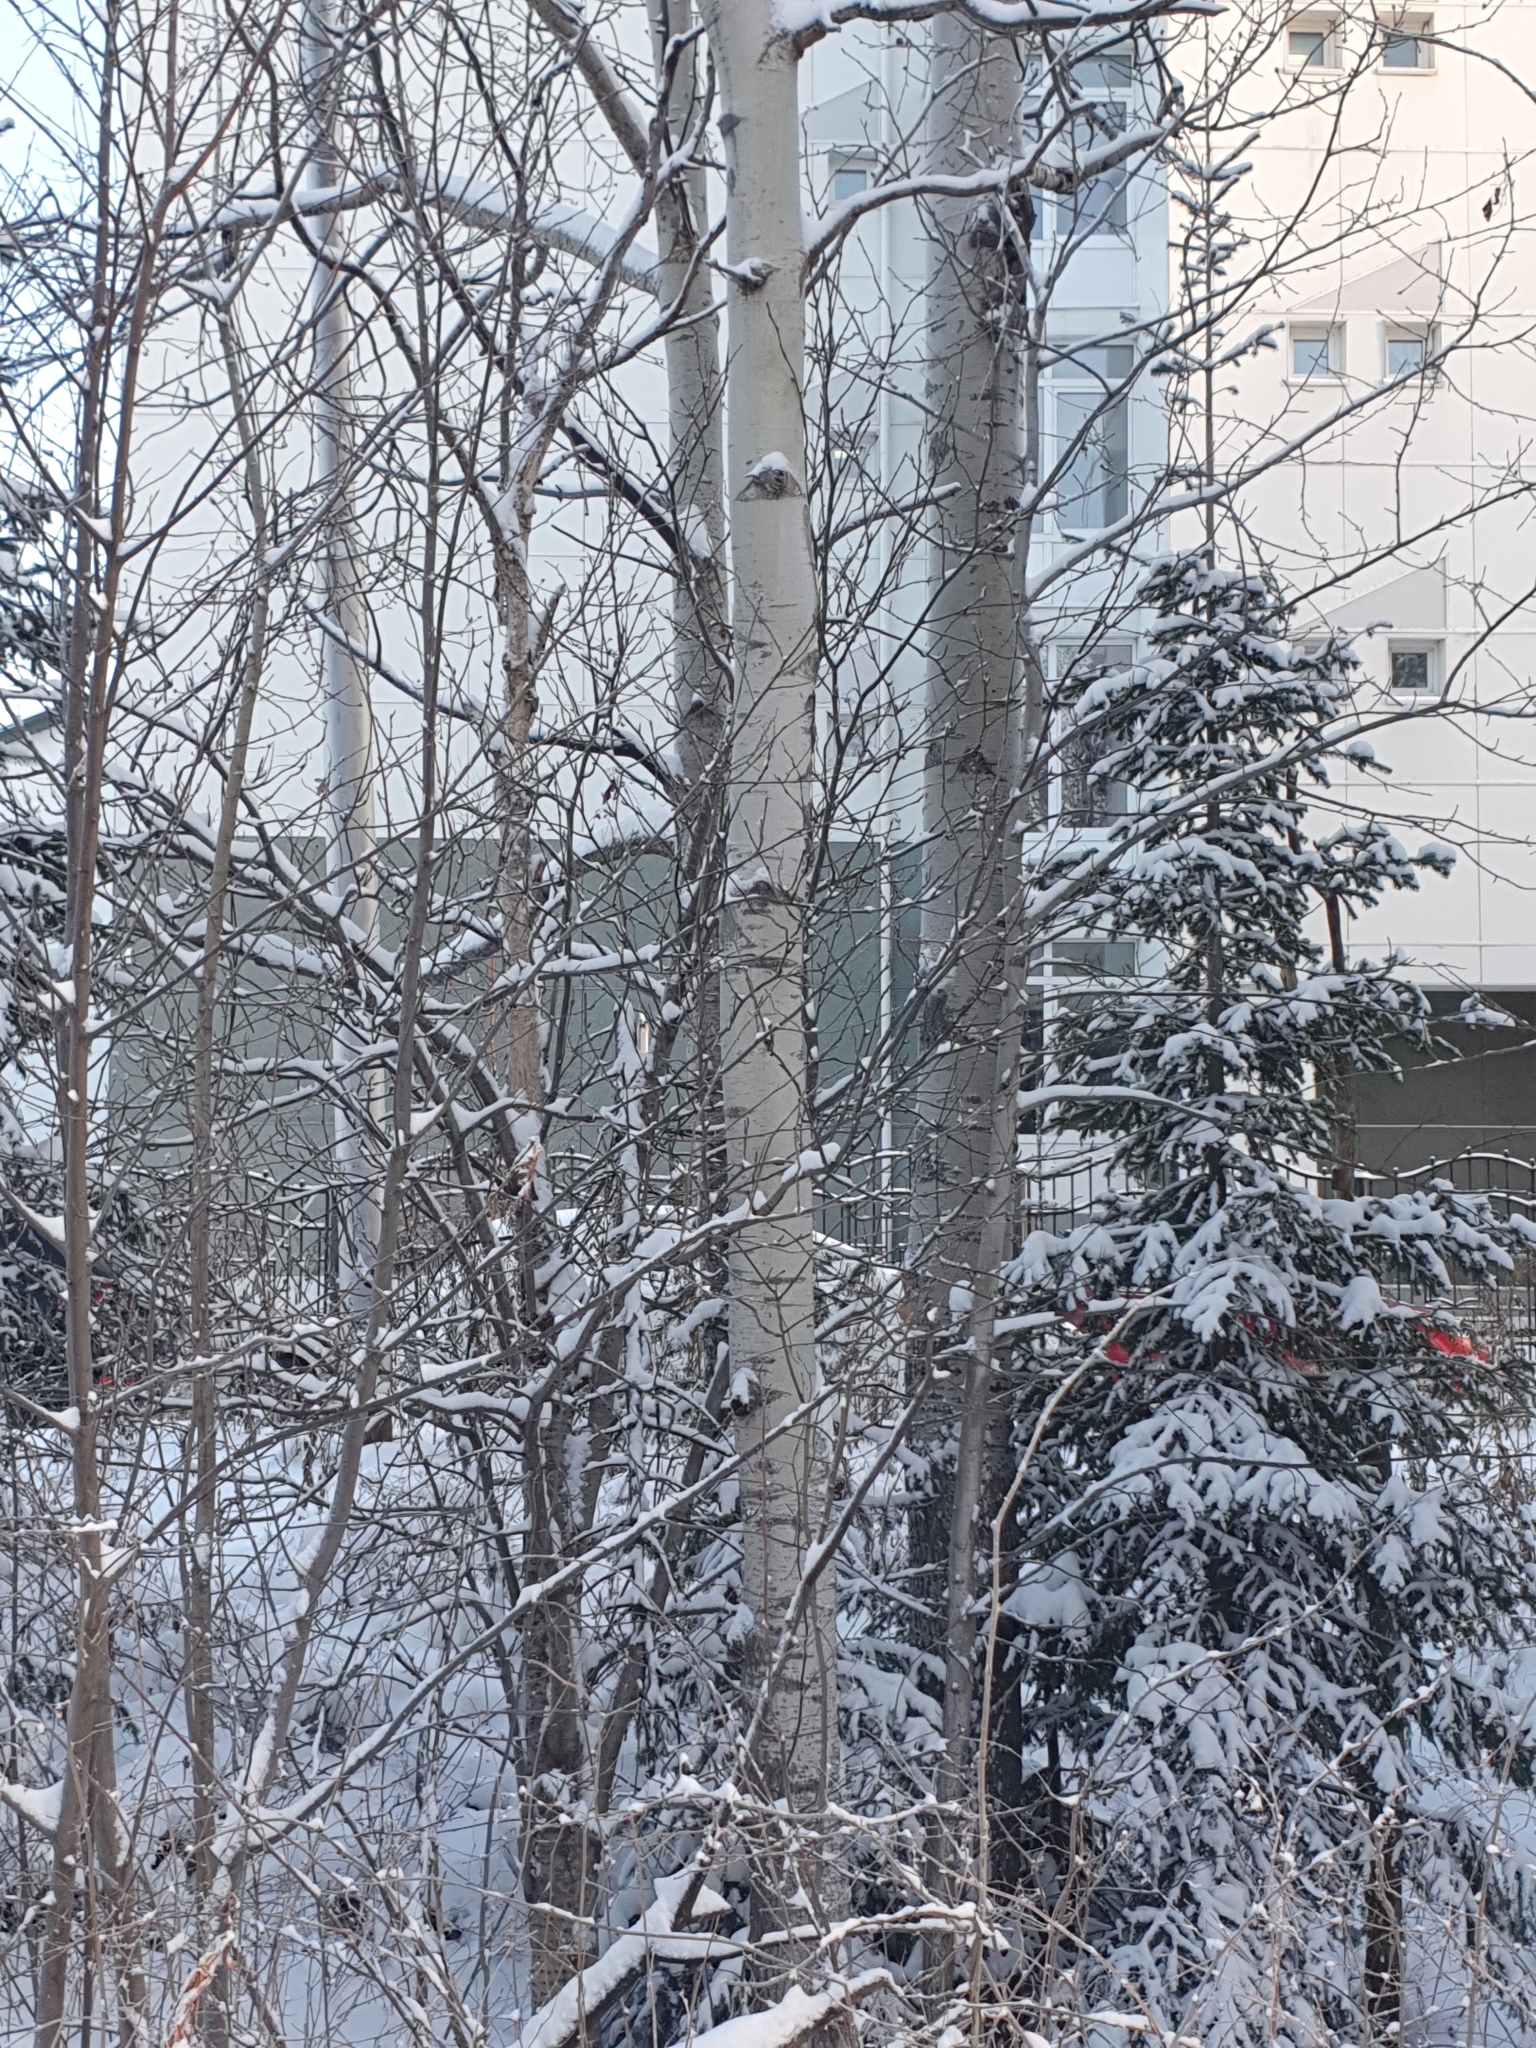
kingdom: Plantae
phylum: Tracheophyta
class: Magnoliopsida
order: Malpighiales
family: Salicaceae
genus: Populus
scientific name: Populus tremula
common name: European aspen
